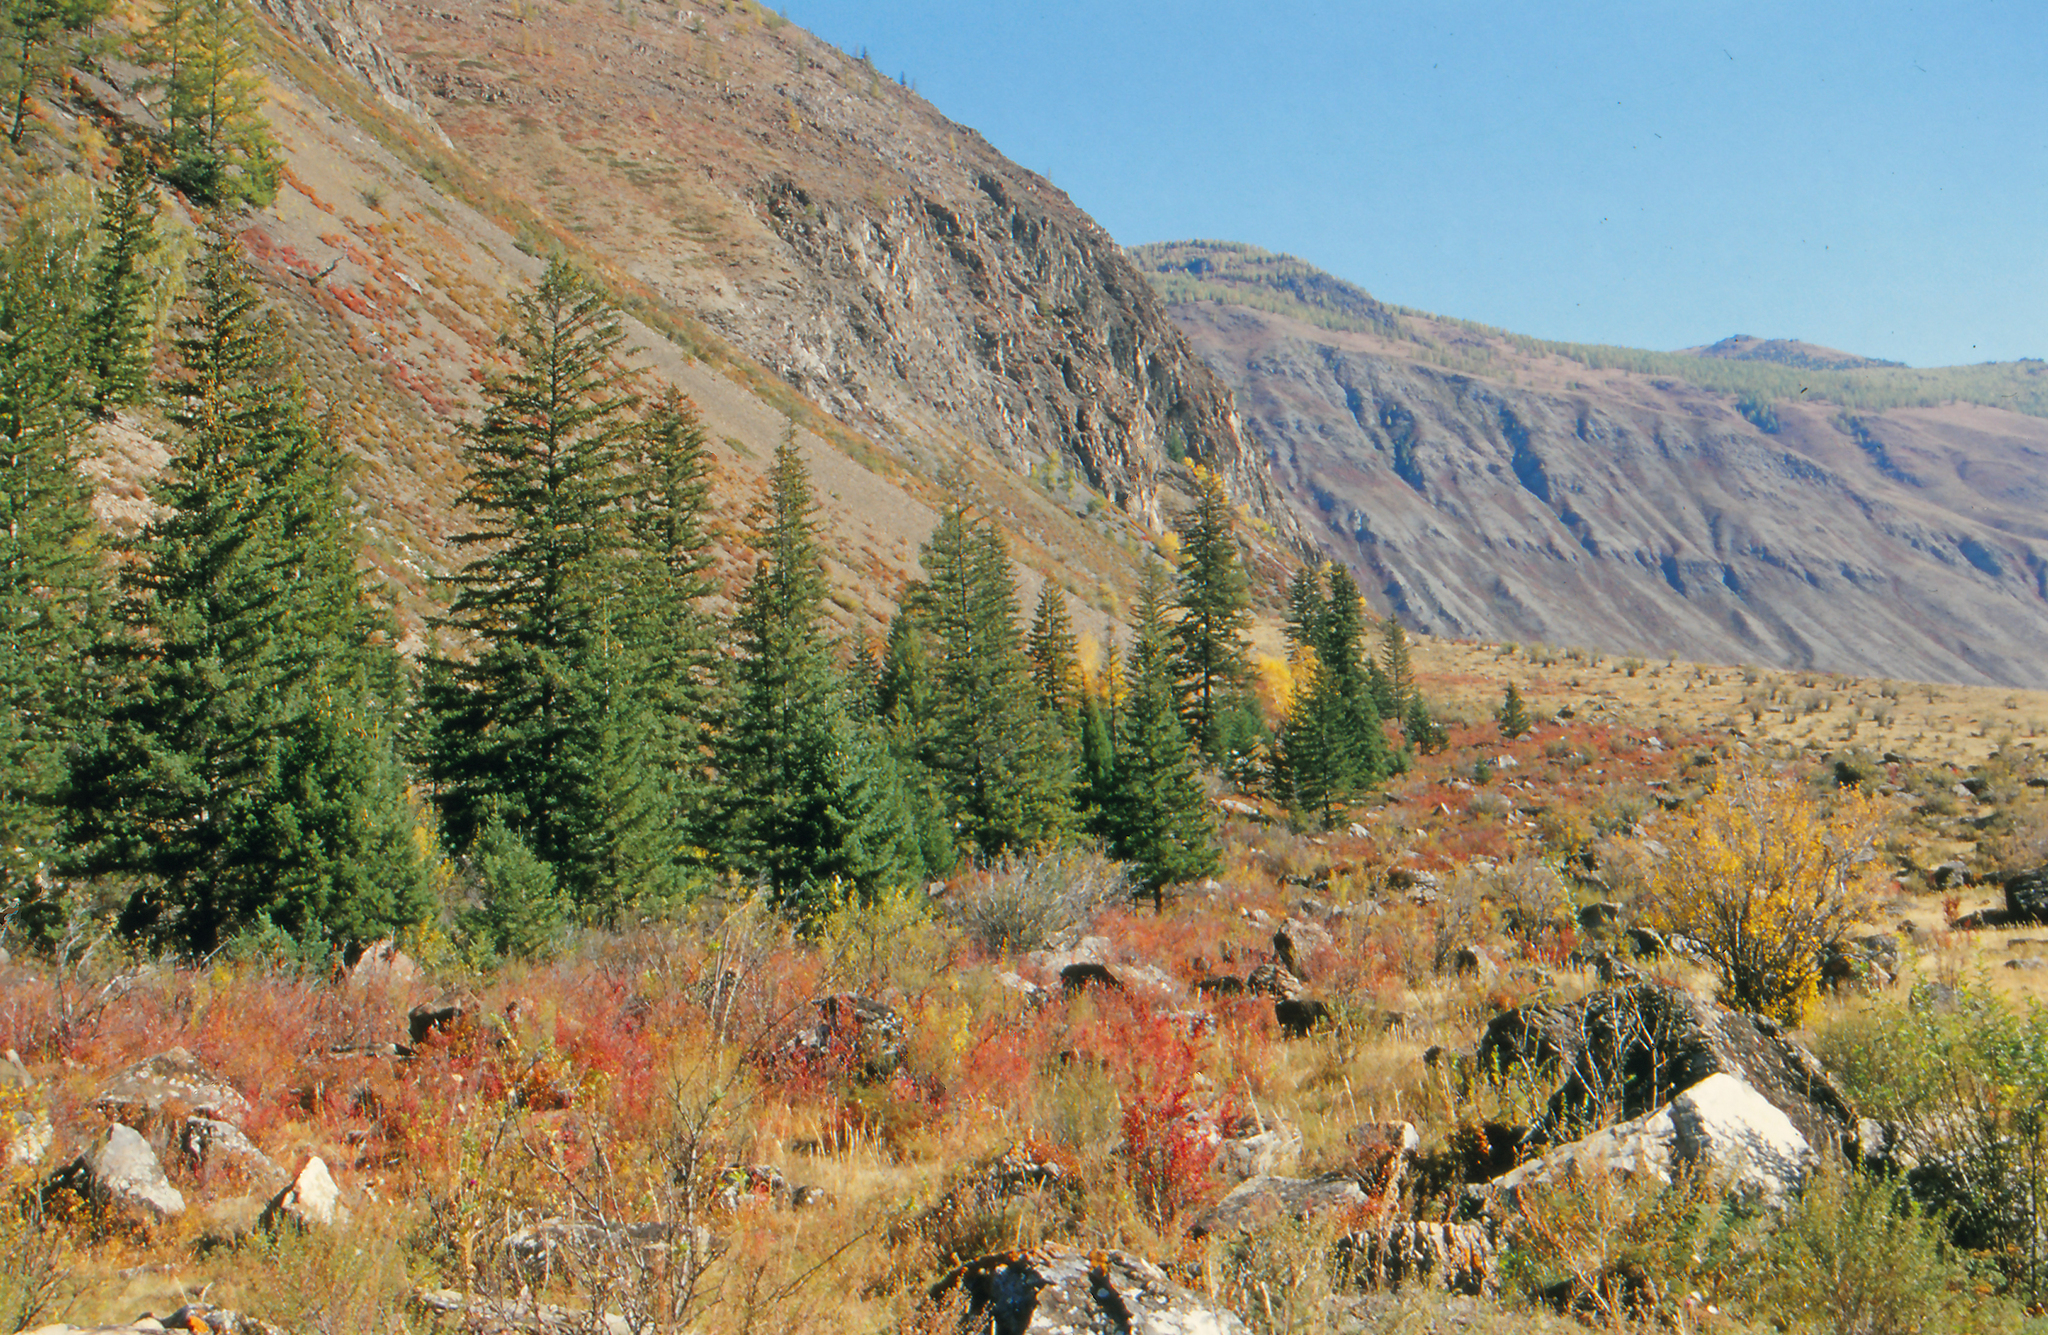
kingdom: Plantae
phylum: Tracheophyta
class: Pinopsida
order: Pinales
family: Pinaceae
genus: Picea
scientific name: Picea obovata
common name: Siberian spruce
